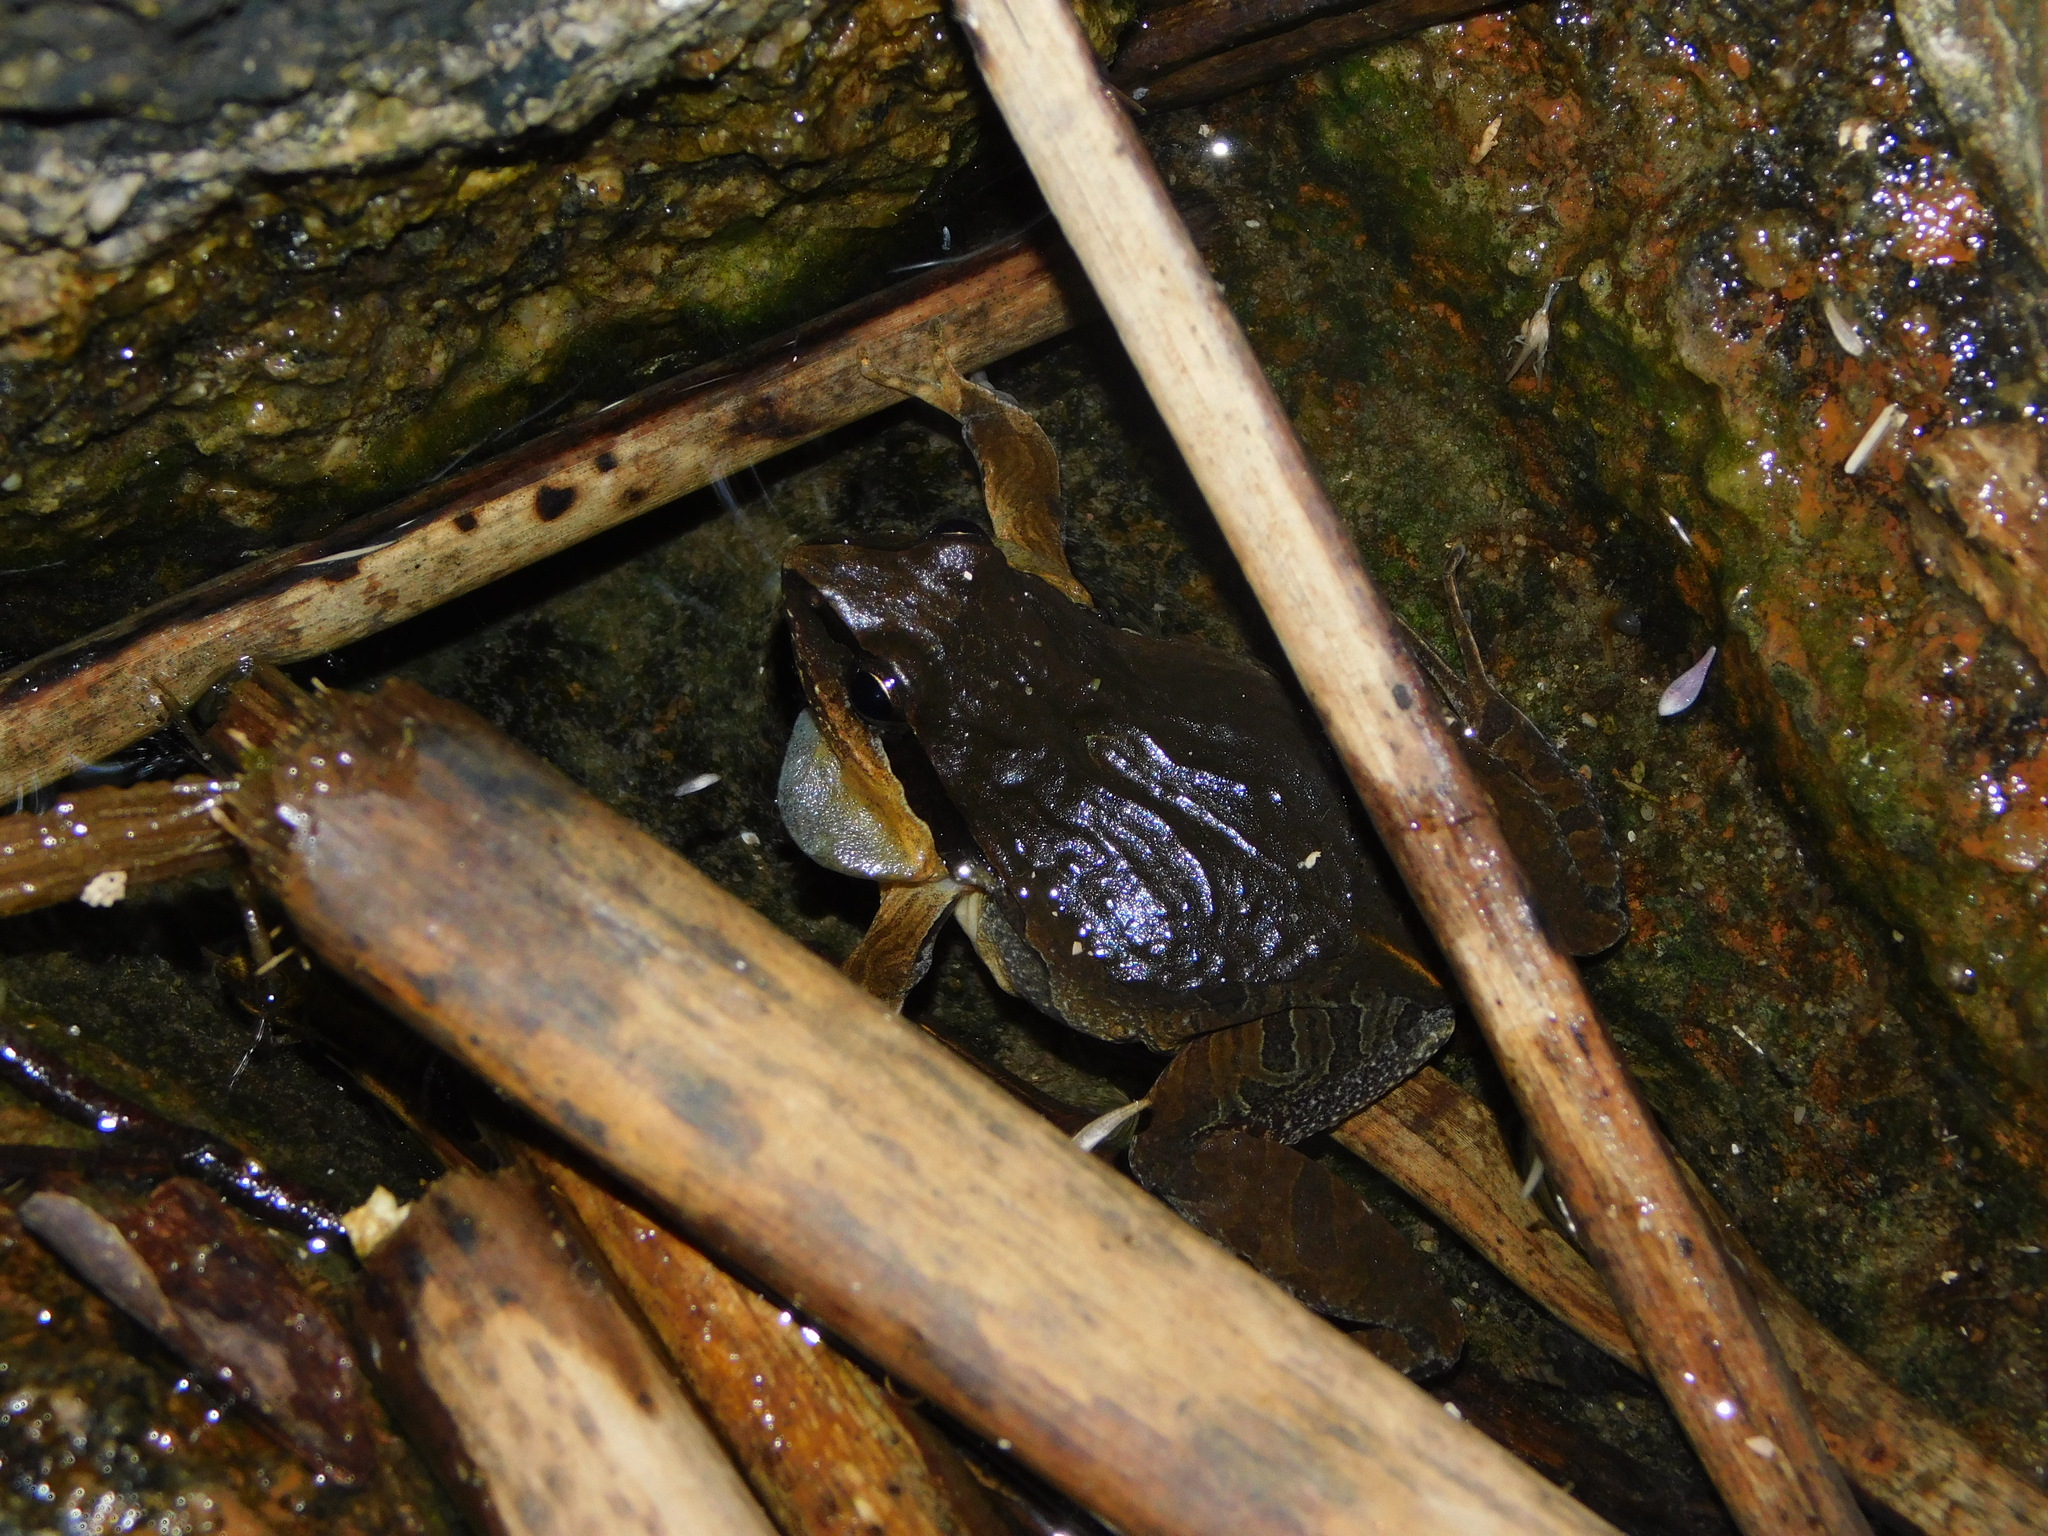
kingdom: Animalia
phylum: Chordata
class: Amphibia
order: Anura
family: Leptodactylidae
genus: Physalaemus
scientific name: Physalaemus gracilis
